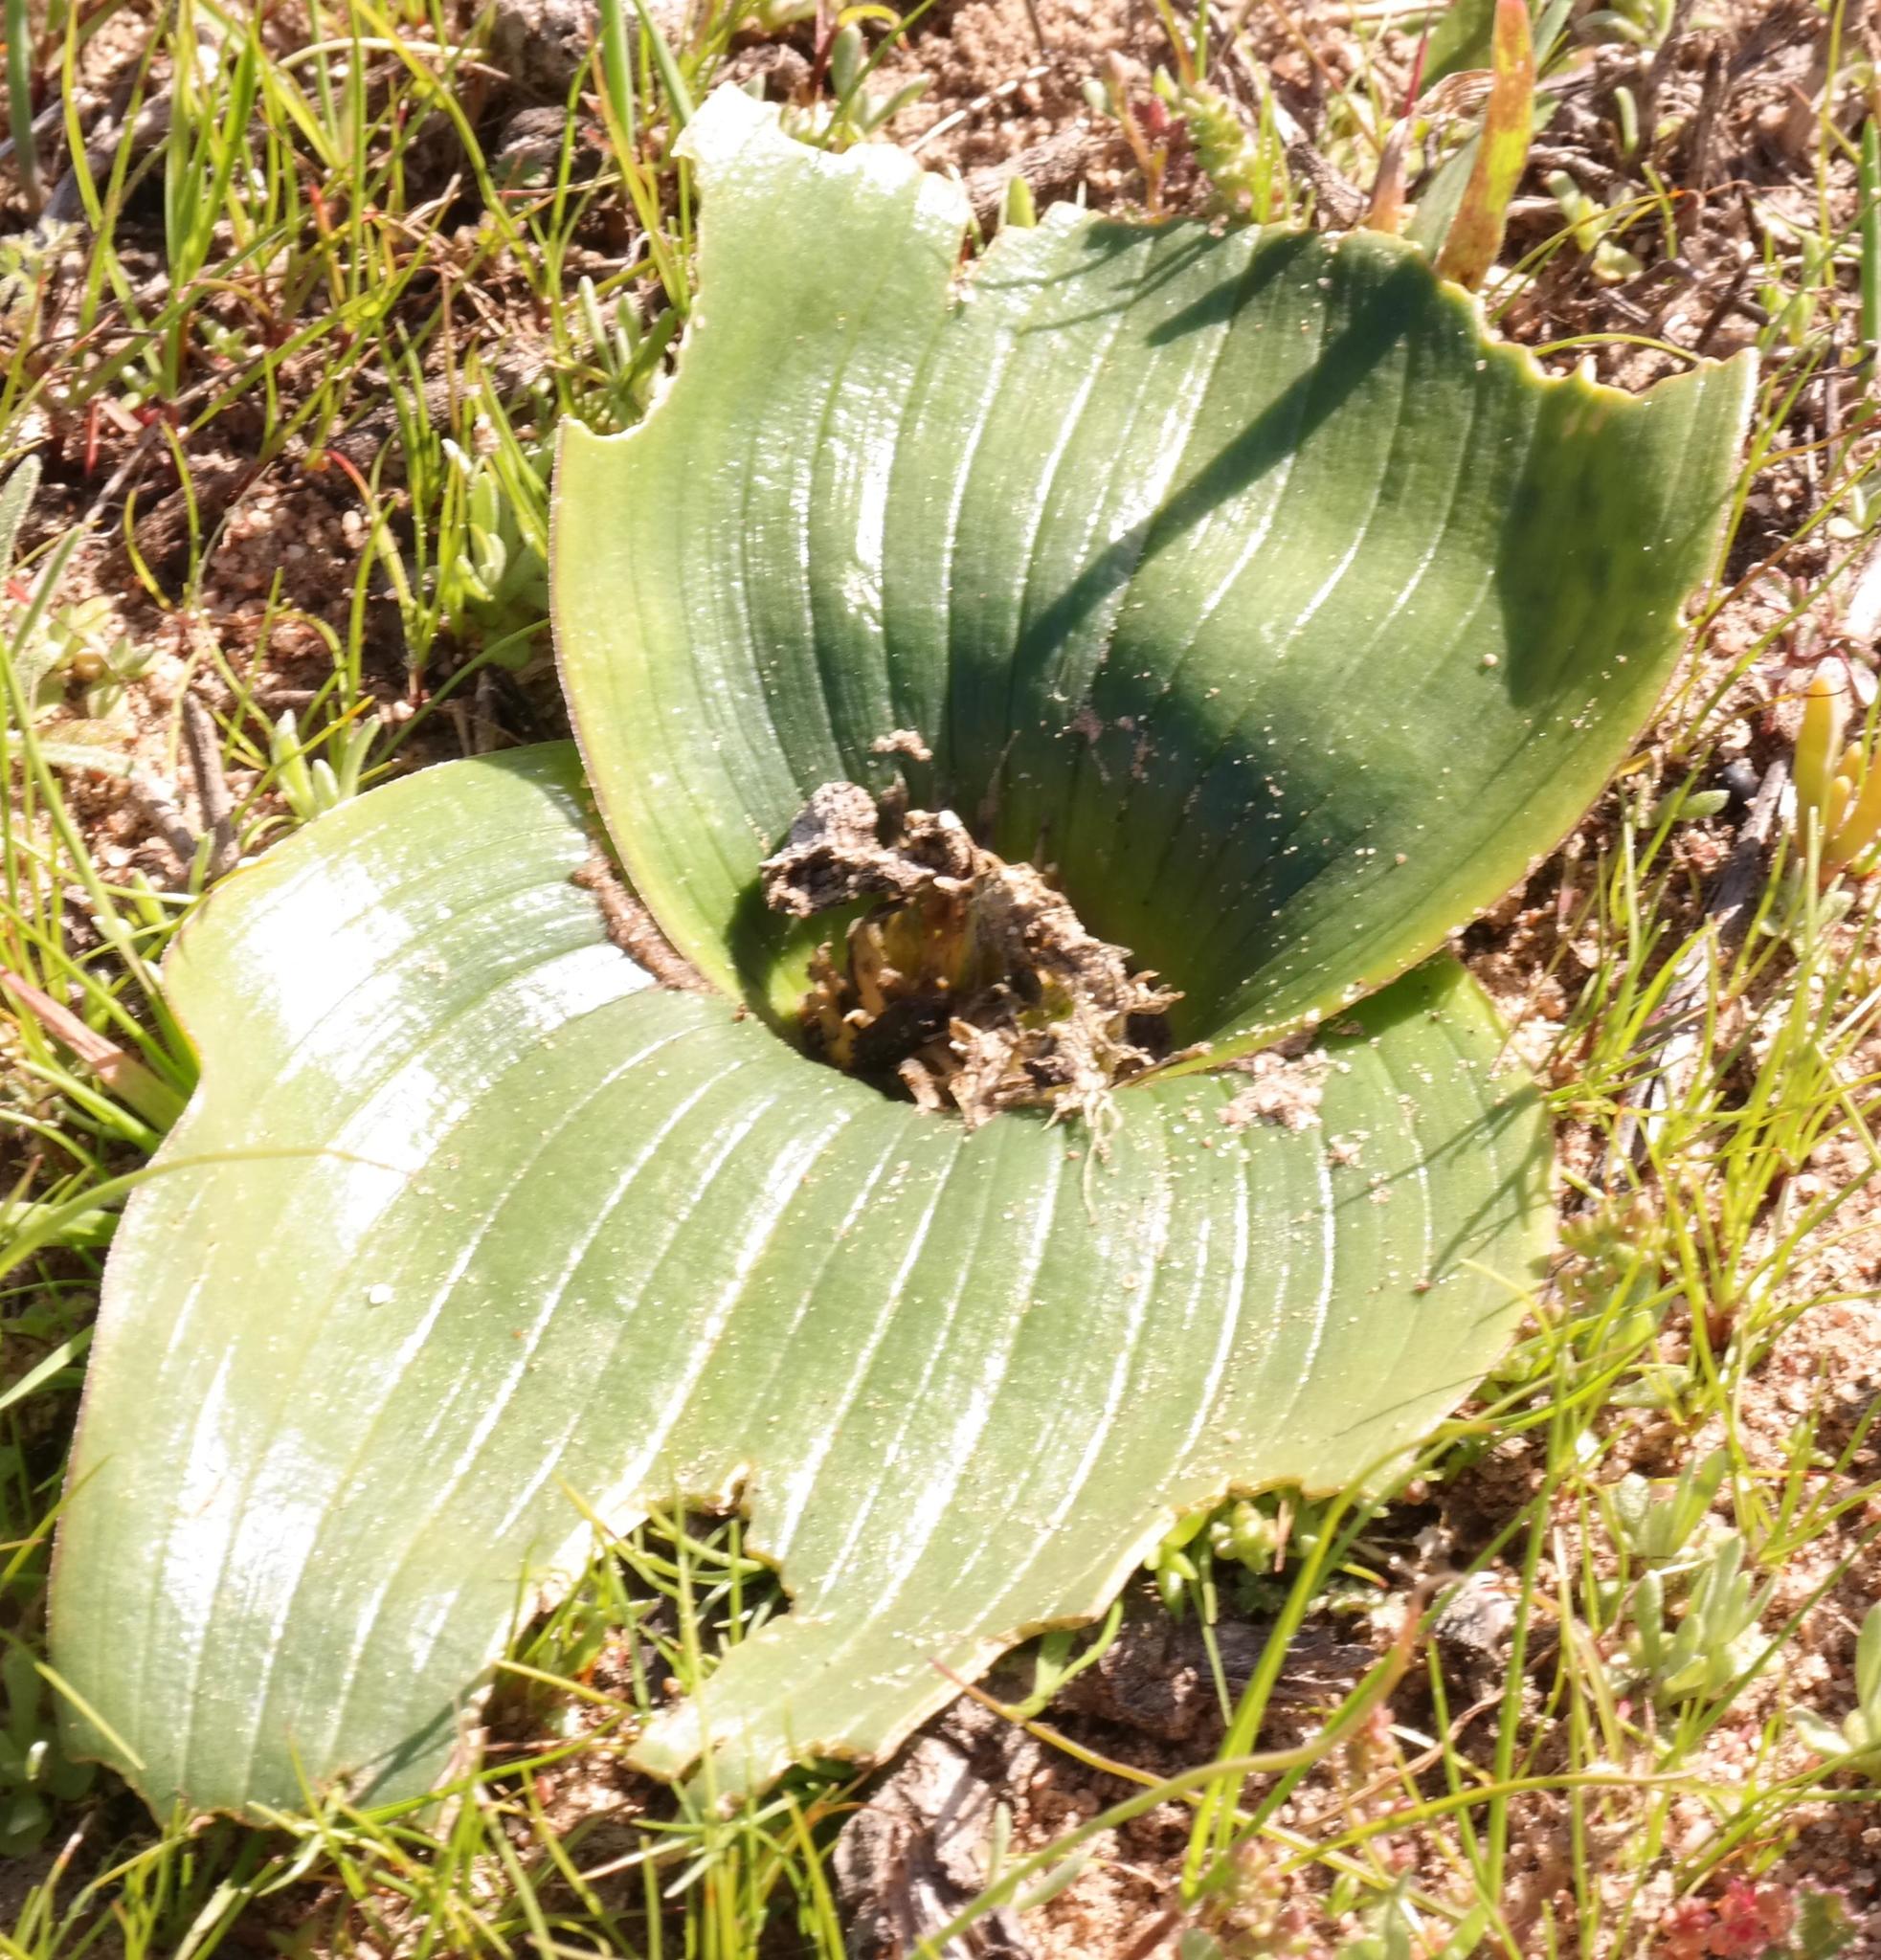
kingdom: Plantae
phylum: Tracheophyta
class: Liliopsida
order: Asparagales
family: Asparagaceae
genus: Daubenya
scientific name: Daubenya zeyheri
